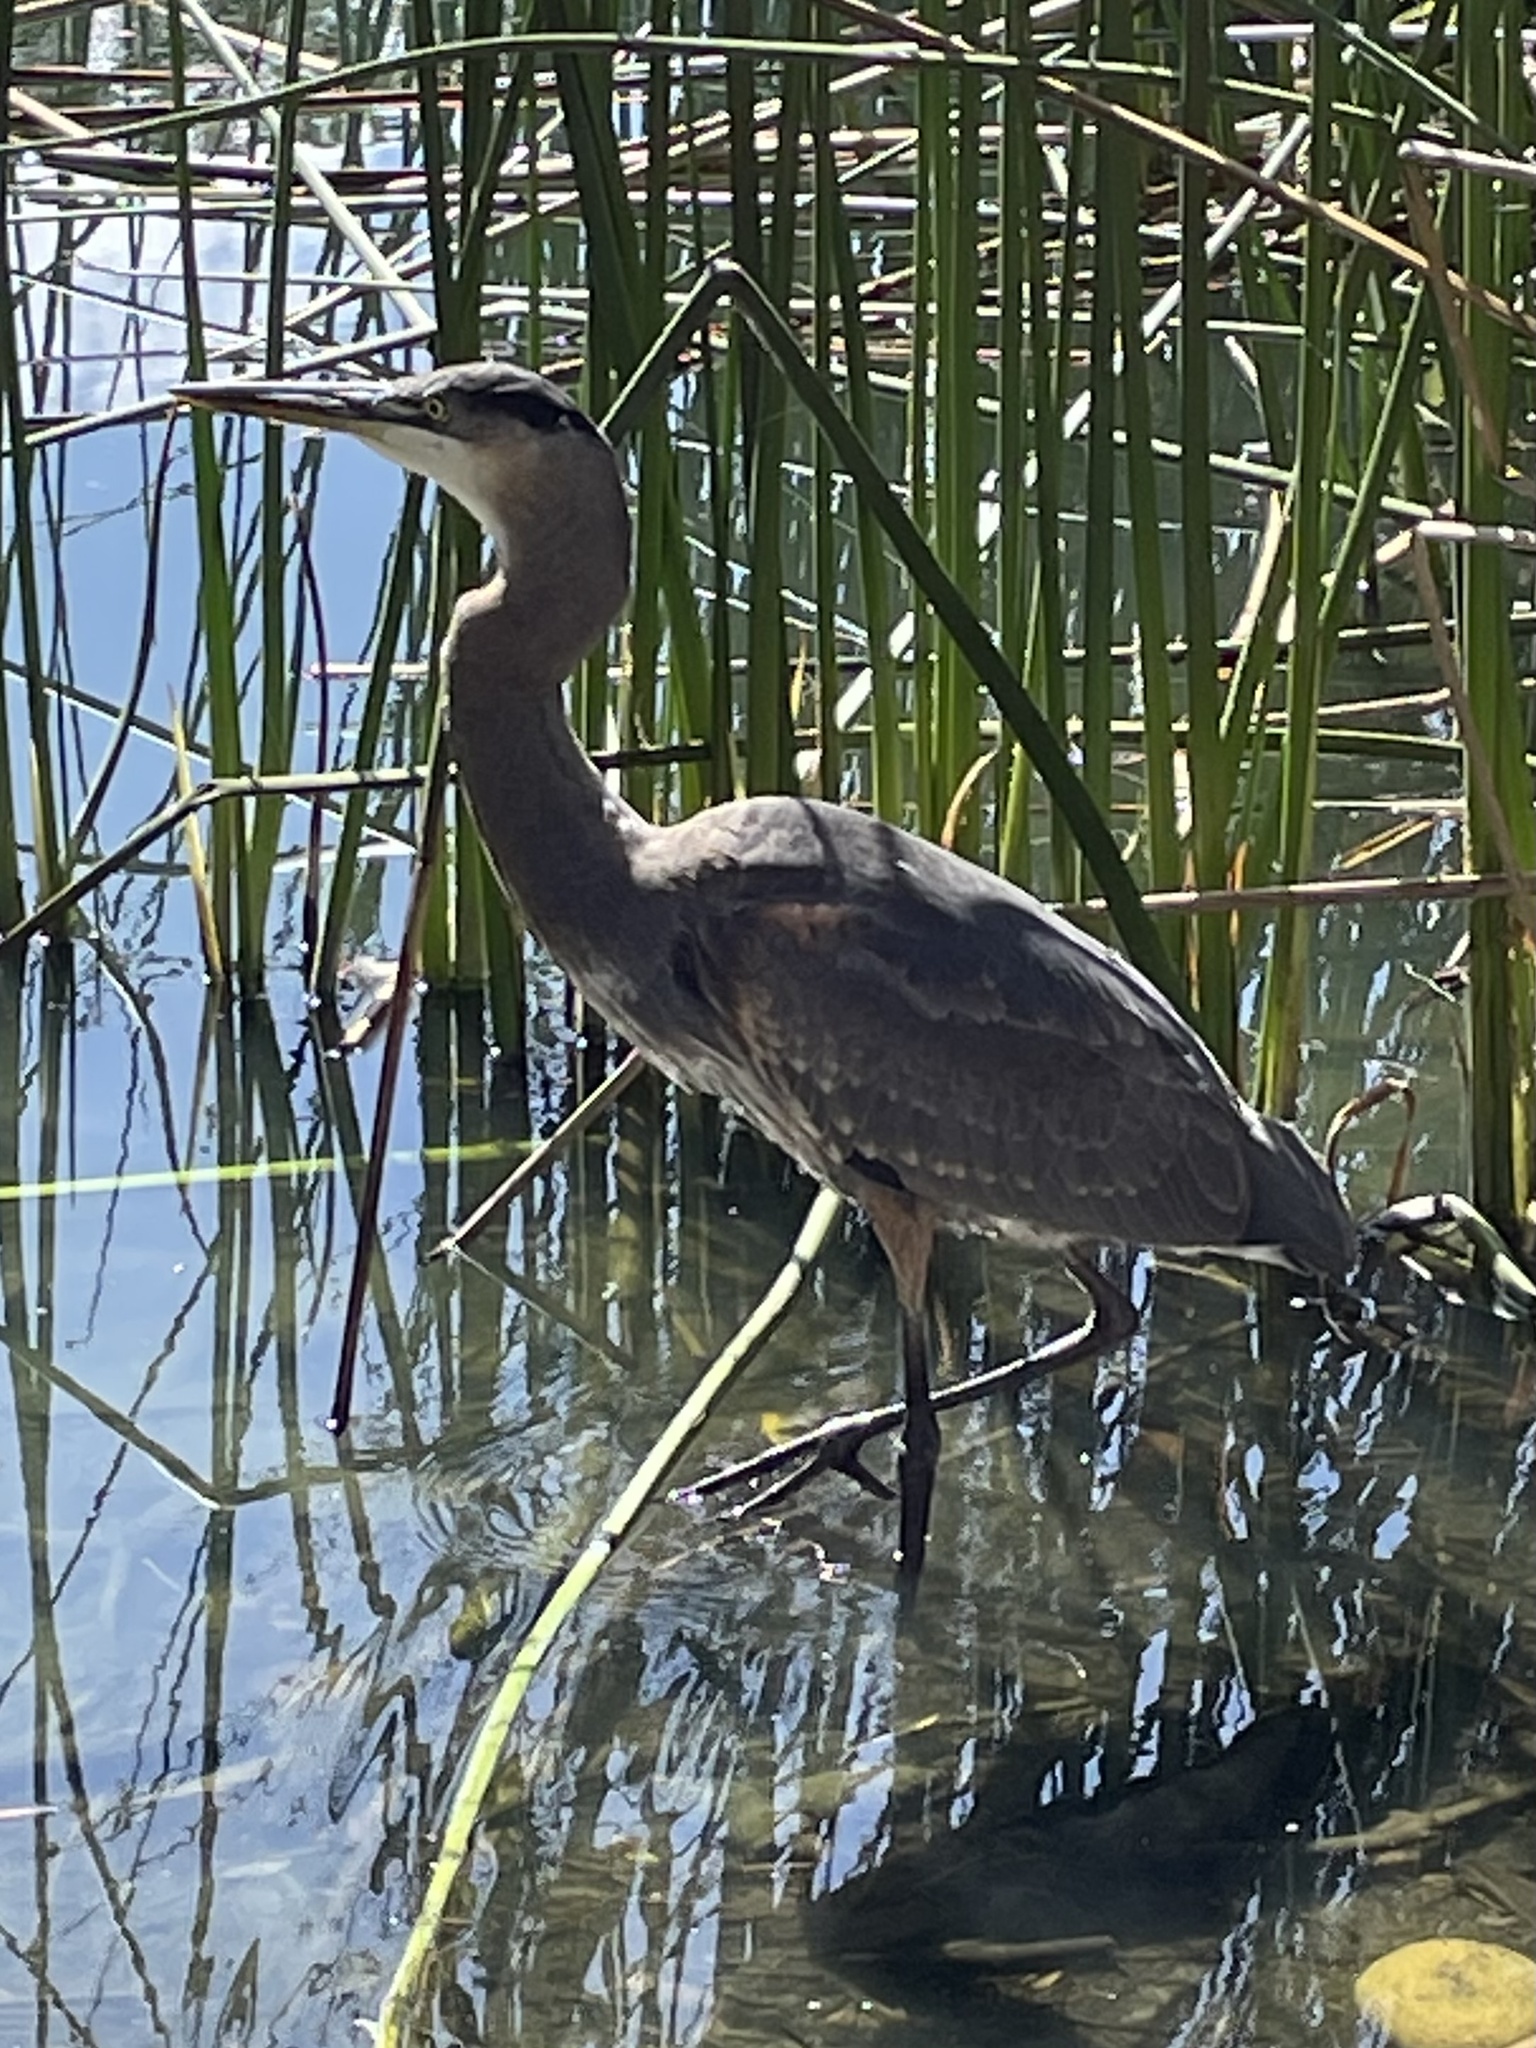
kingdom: Animalia
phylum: Chordata
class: Aves
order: Pelecaniformes
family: Ardeidae
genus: Ardea
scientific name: Ardea herodias
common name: Great blue heron
